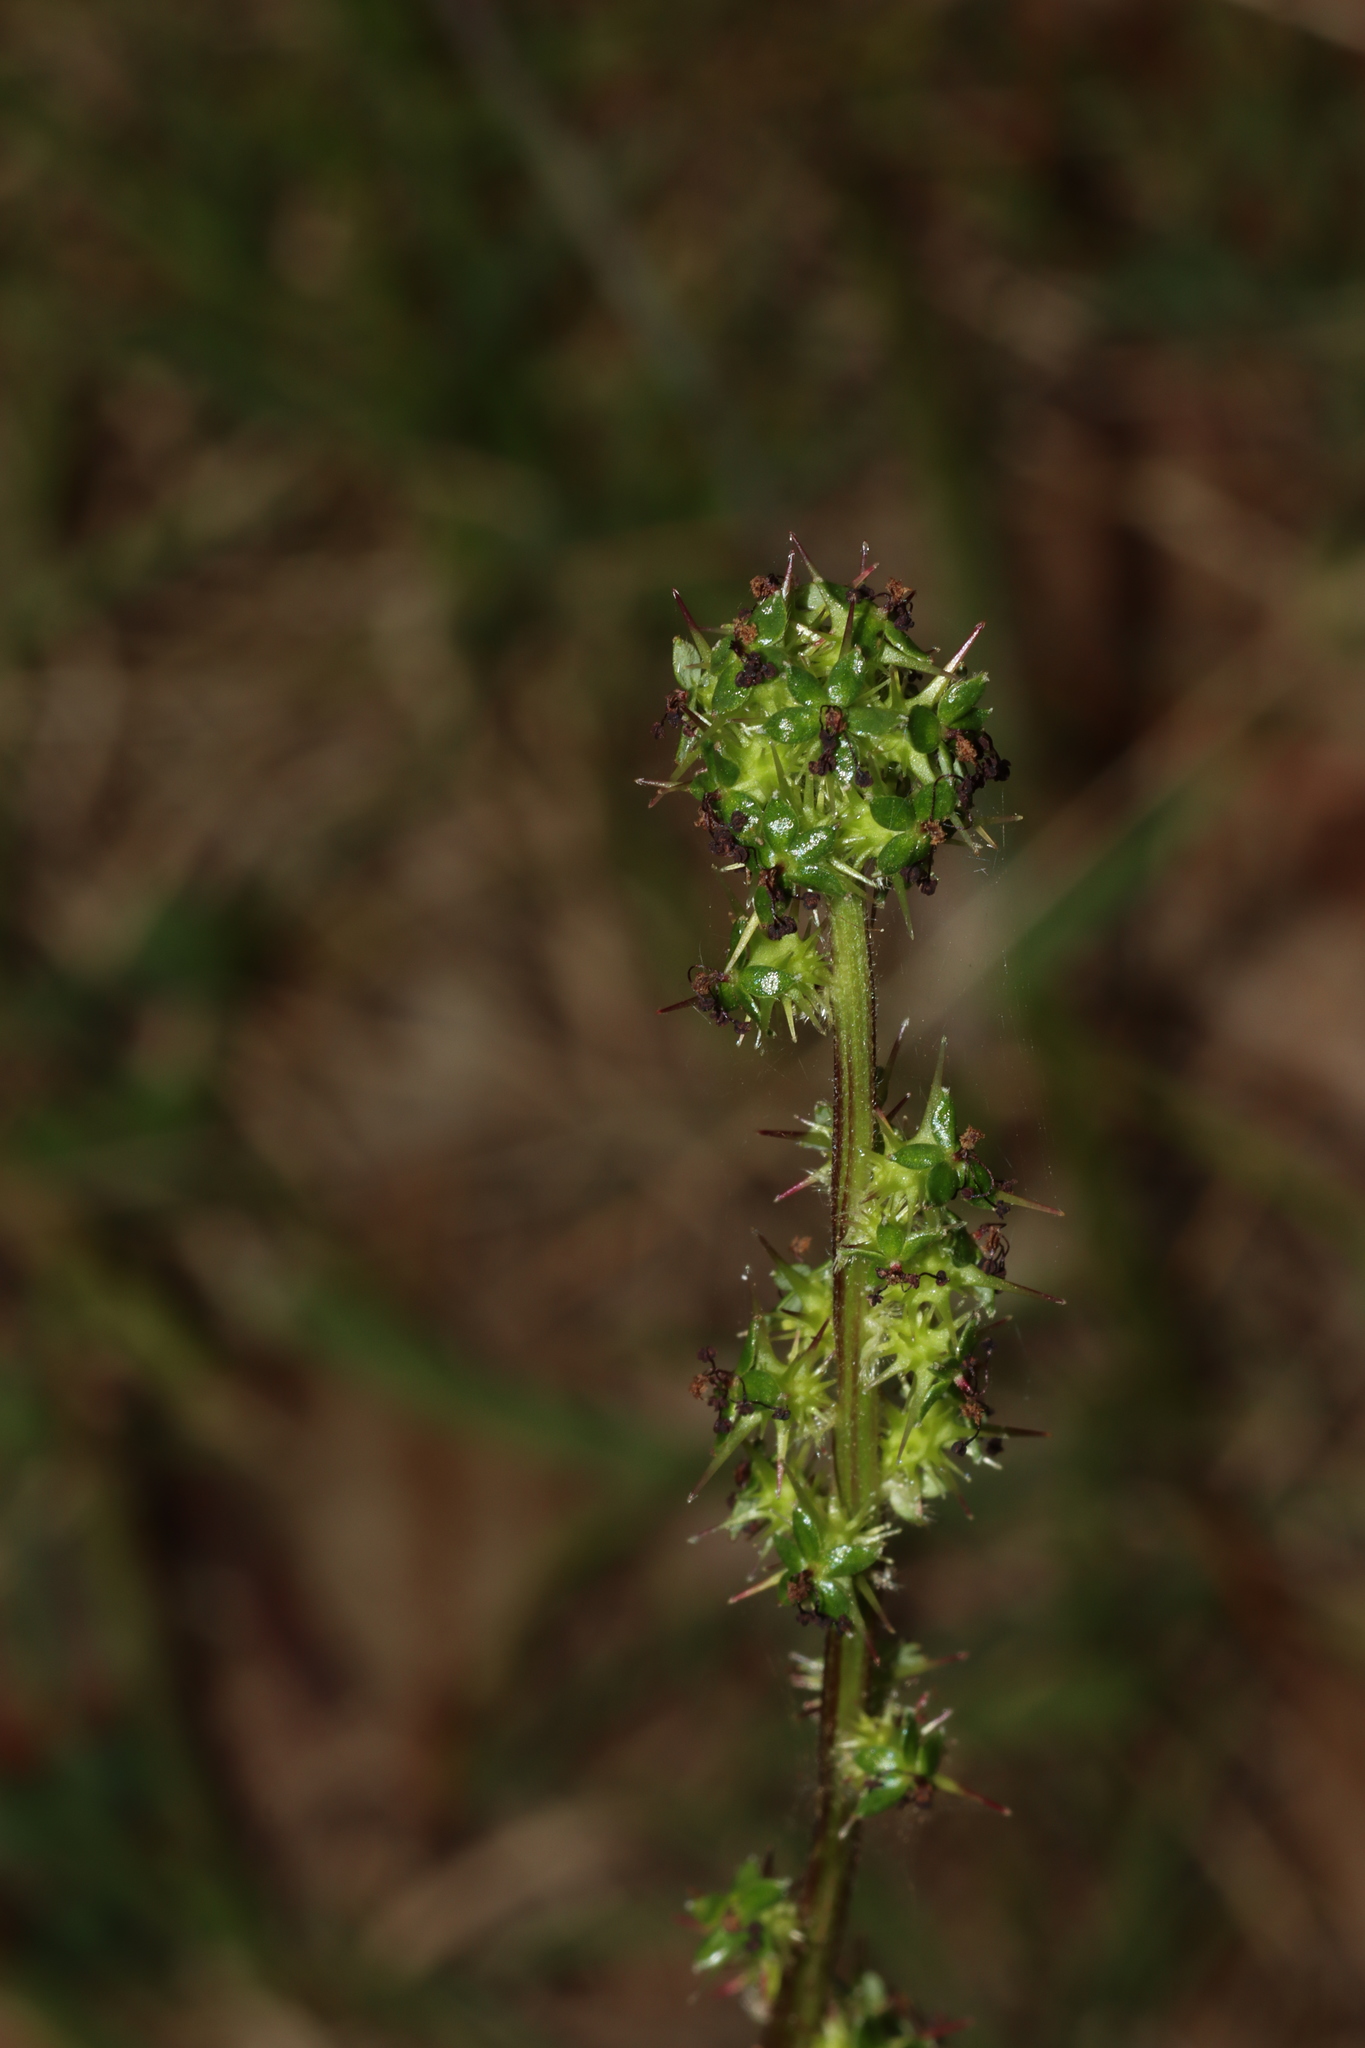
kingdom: Plantae
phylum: Tracheophyta
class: Magnoliopsida
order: Rosales
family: Rosaceae
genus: Acaena
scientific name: Acaena echinata
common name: Sheepbur
